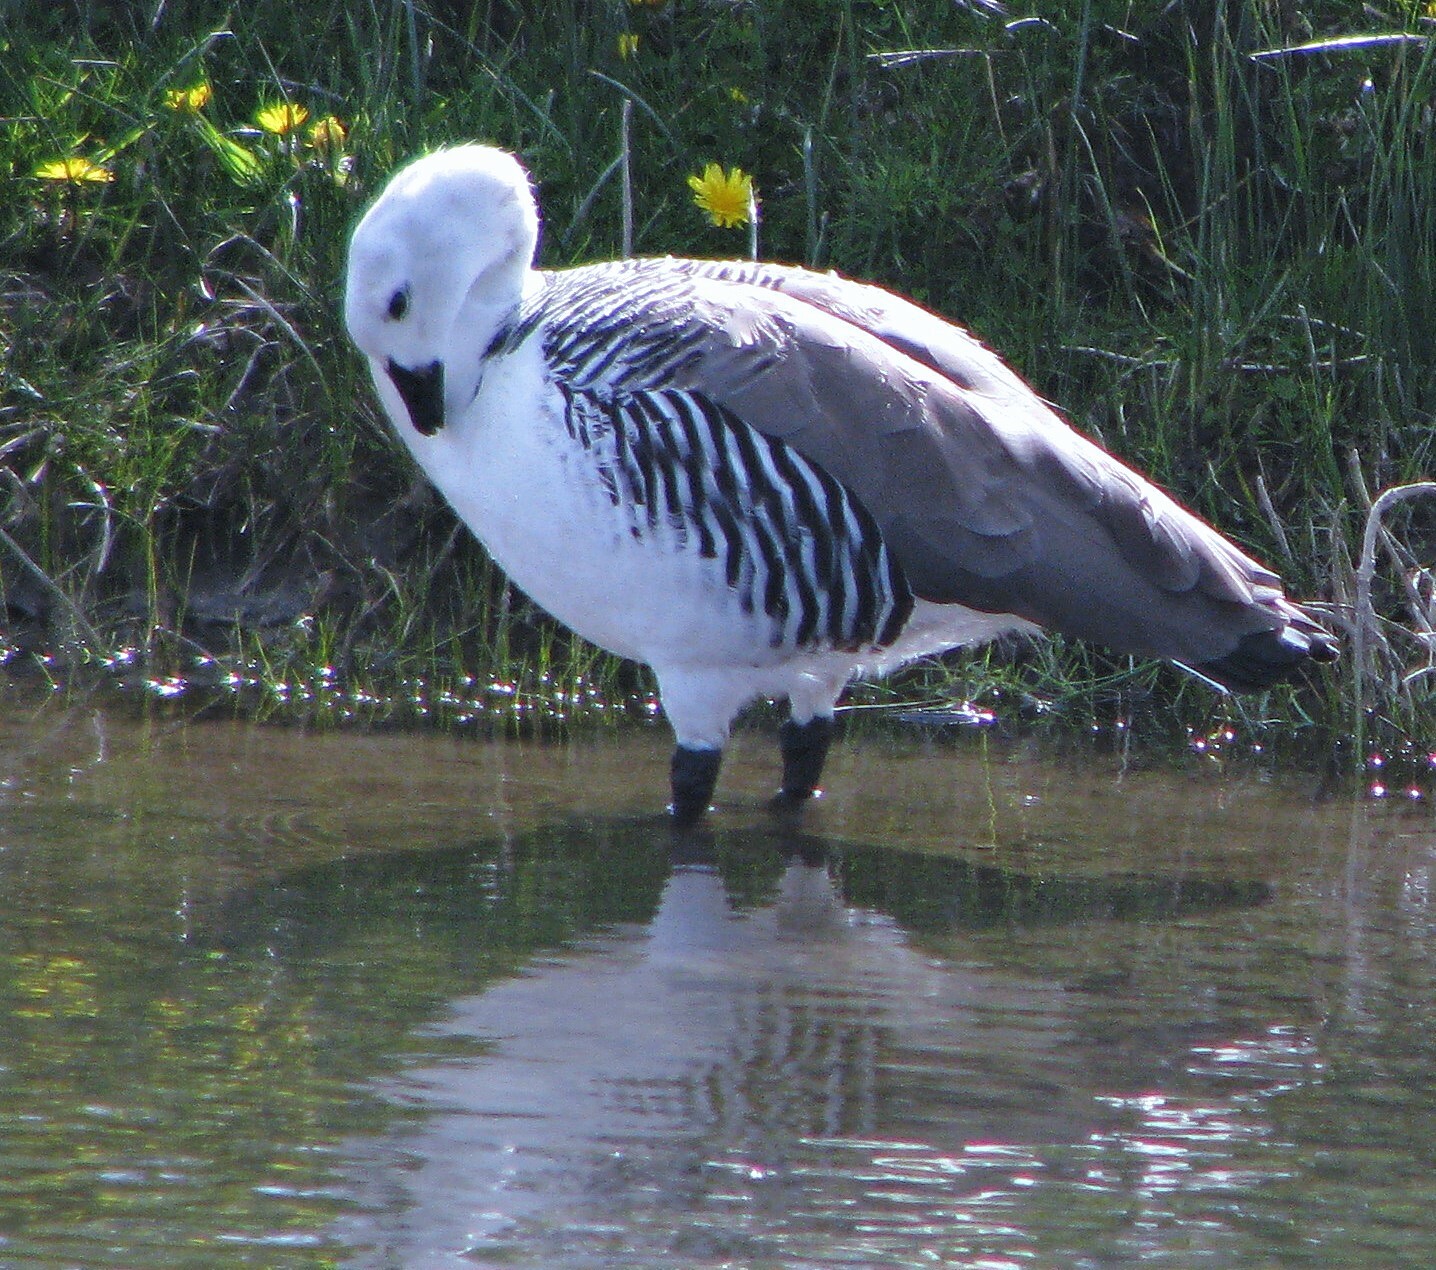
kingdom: Animalia
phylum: Chordata
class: Aves
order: Anseriformes
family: Anatidae
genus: Chloephaga
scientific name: Chloephaga picta
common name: Upland goose
